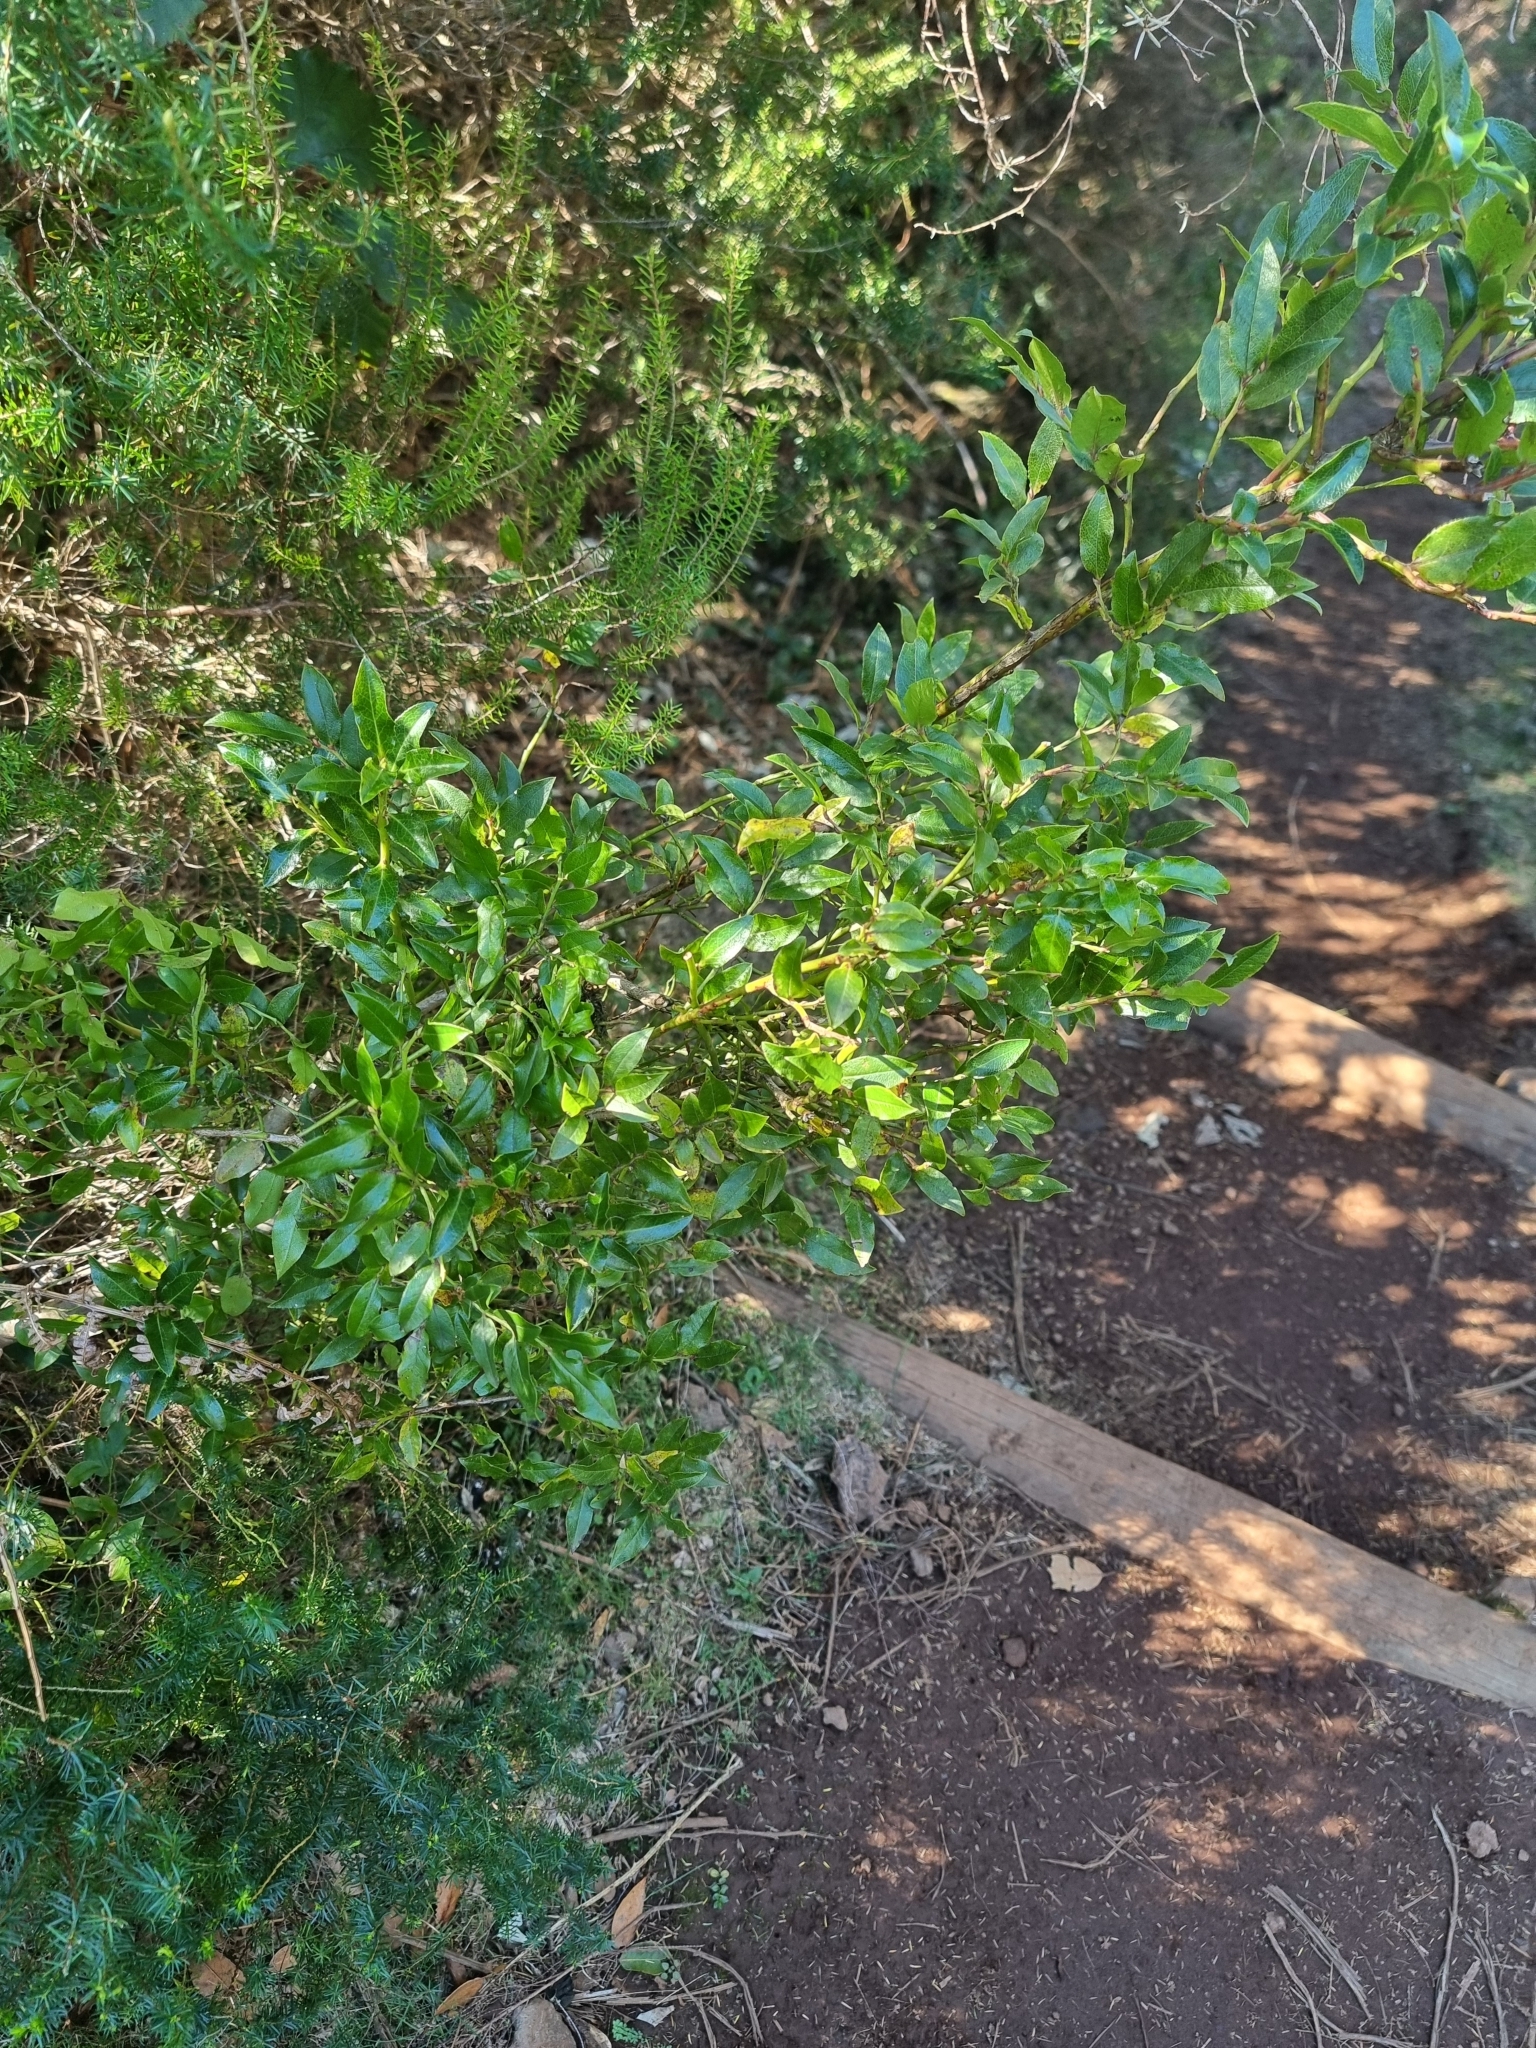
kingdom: Plantae
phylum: Tracheophyta
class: Magnoliopsida
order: Ericales
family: Ericaceae
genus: Vaccinium
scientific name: Vaccinium padifolium
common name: Madeiran blueberry
